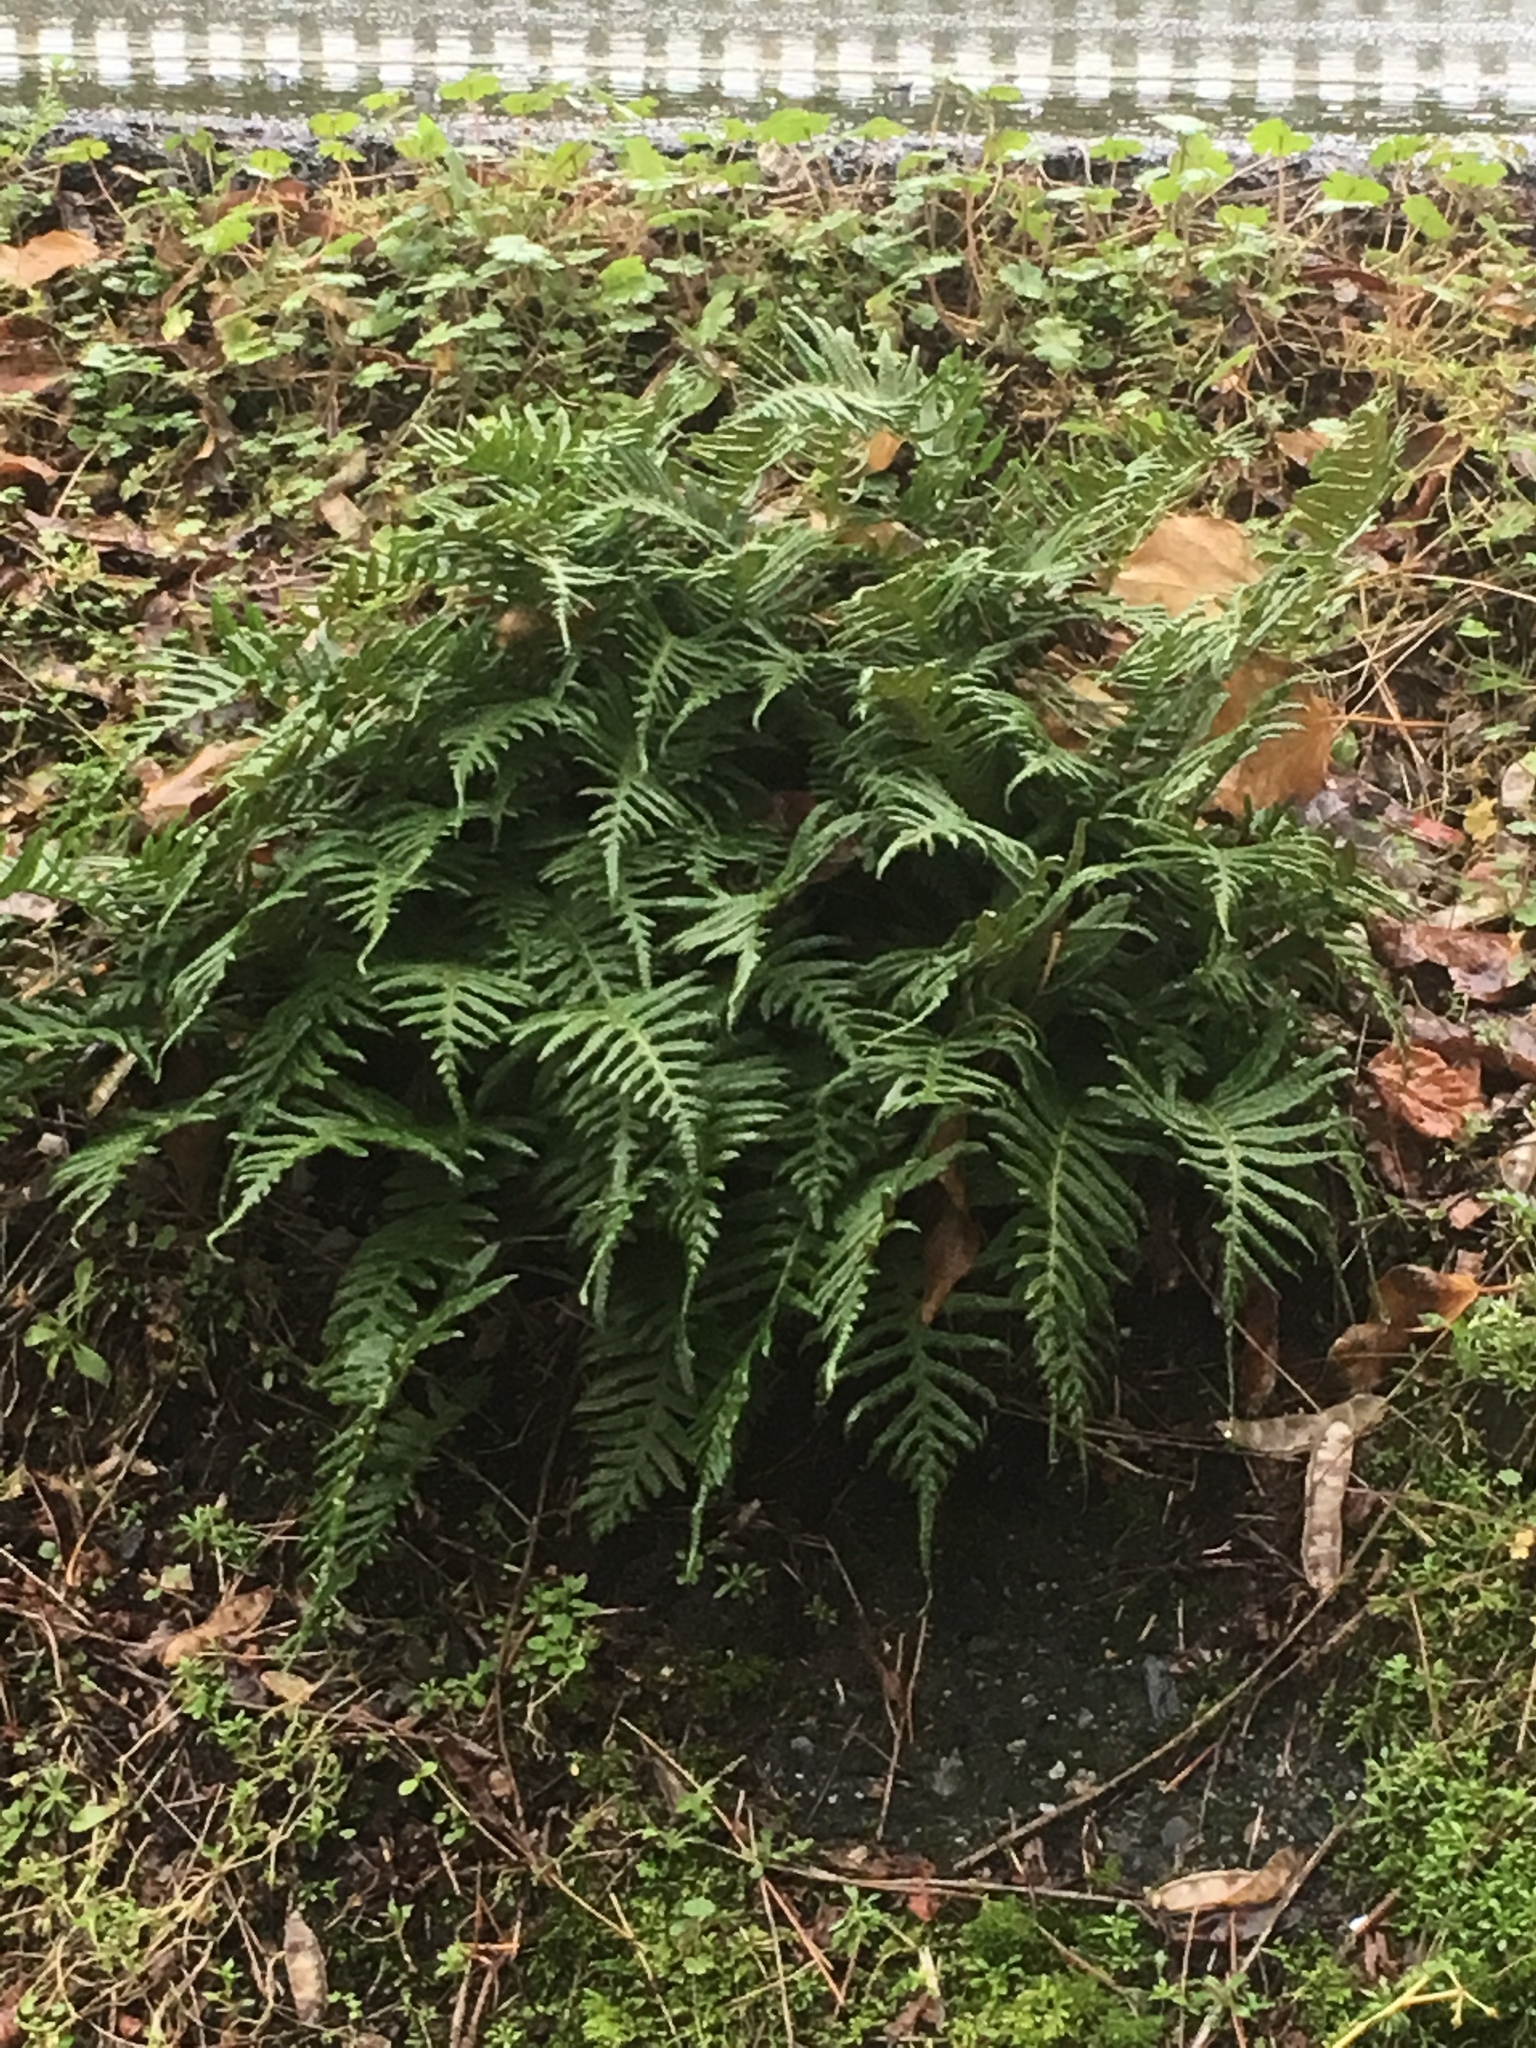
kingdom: Plantae
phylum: Tracheophyta
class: Polypodiopsida
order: Polypodiales
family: Polypodiaceae
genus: Polypodium
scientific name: Polypodium glycyrrhiza
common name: Licorice fern
